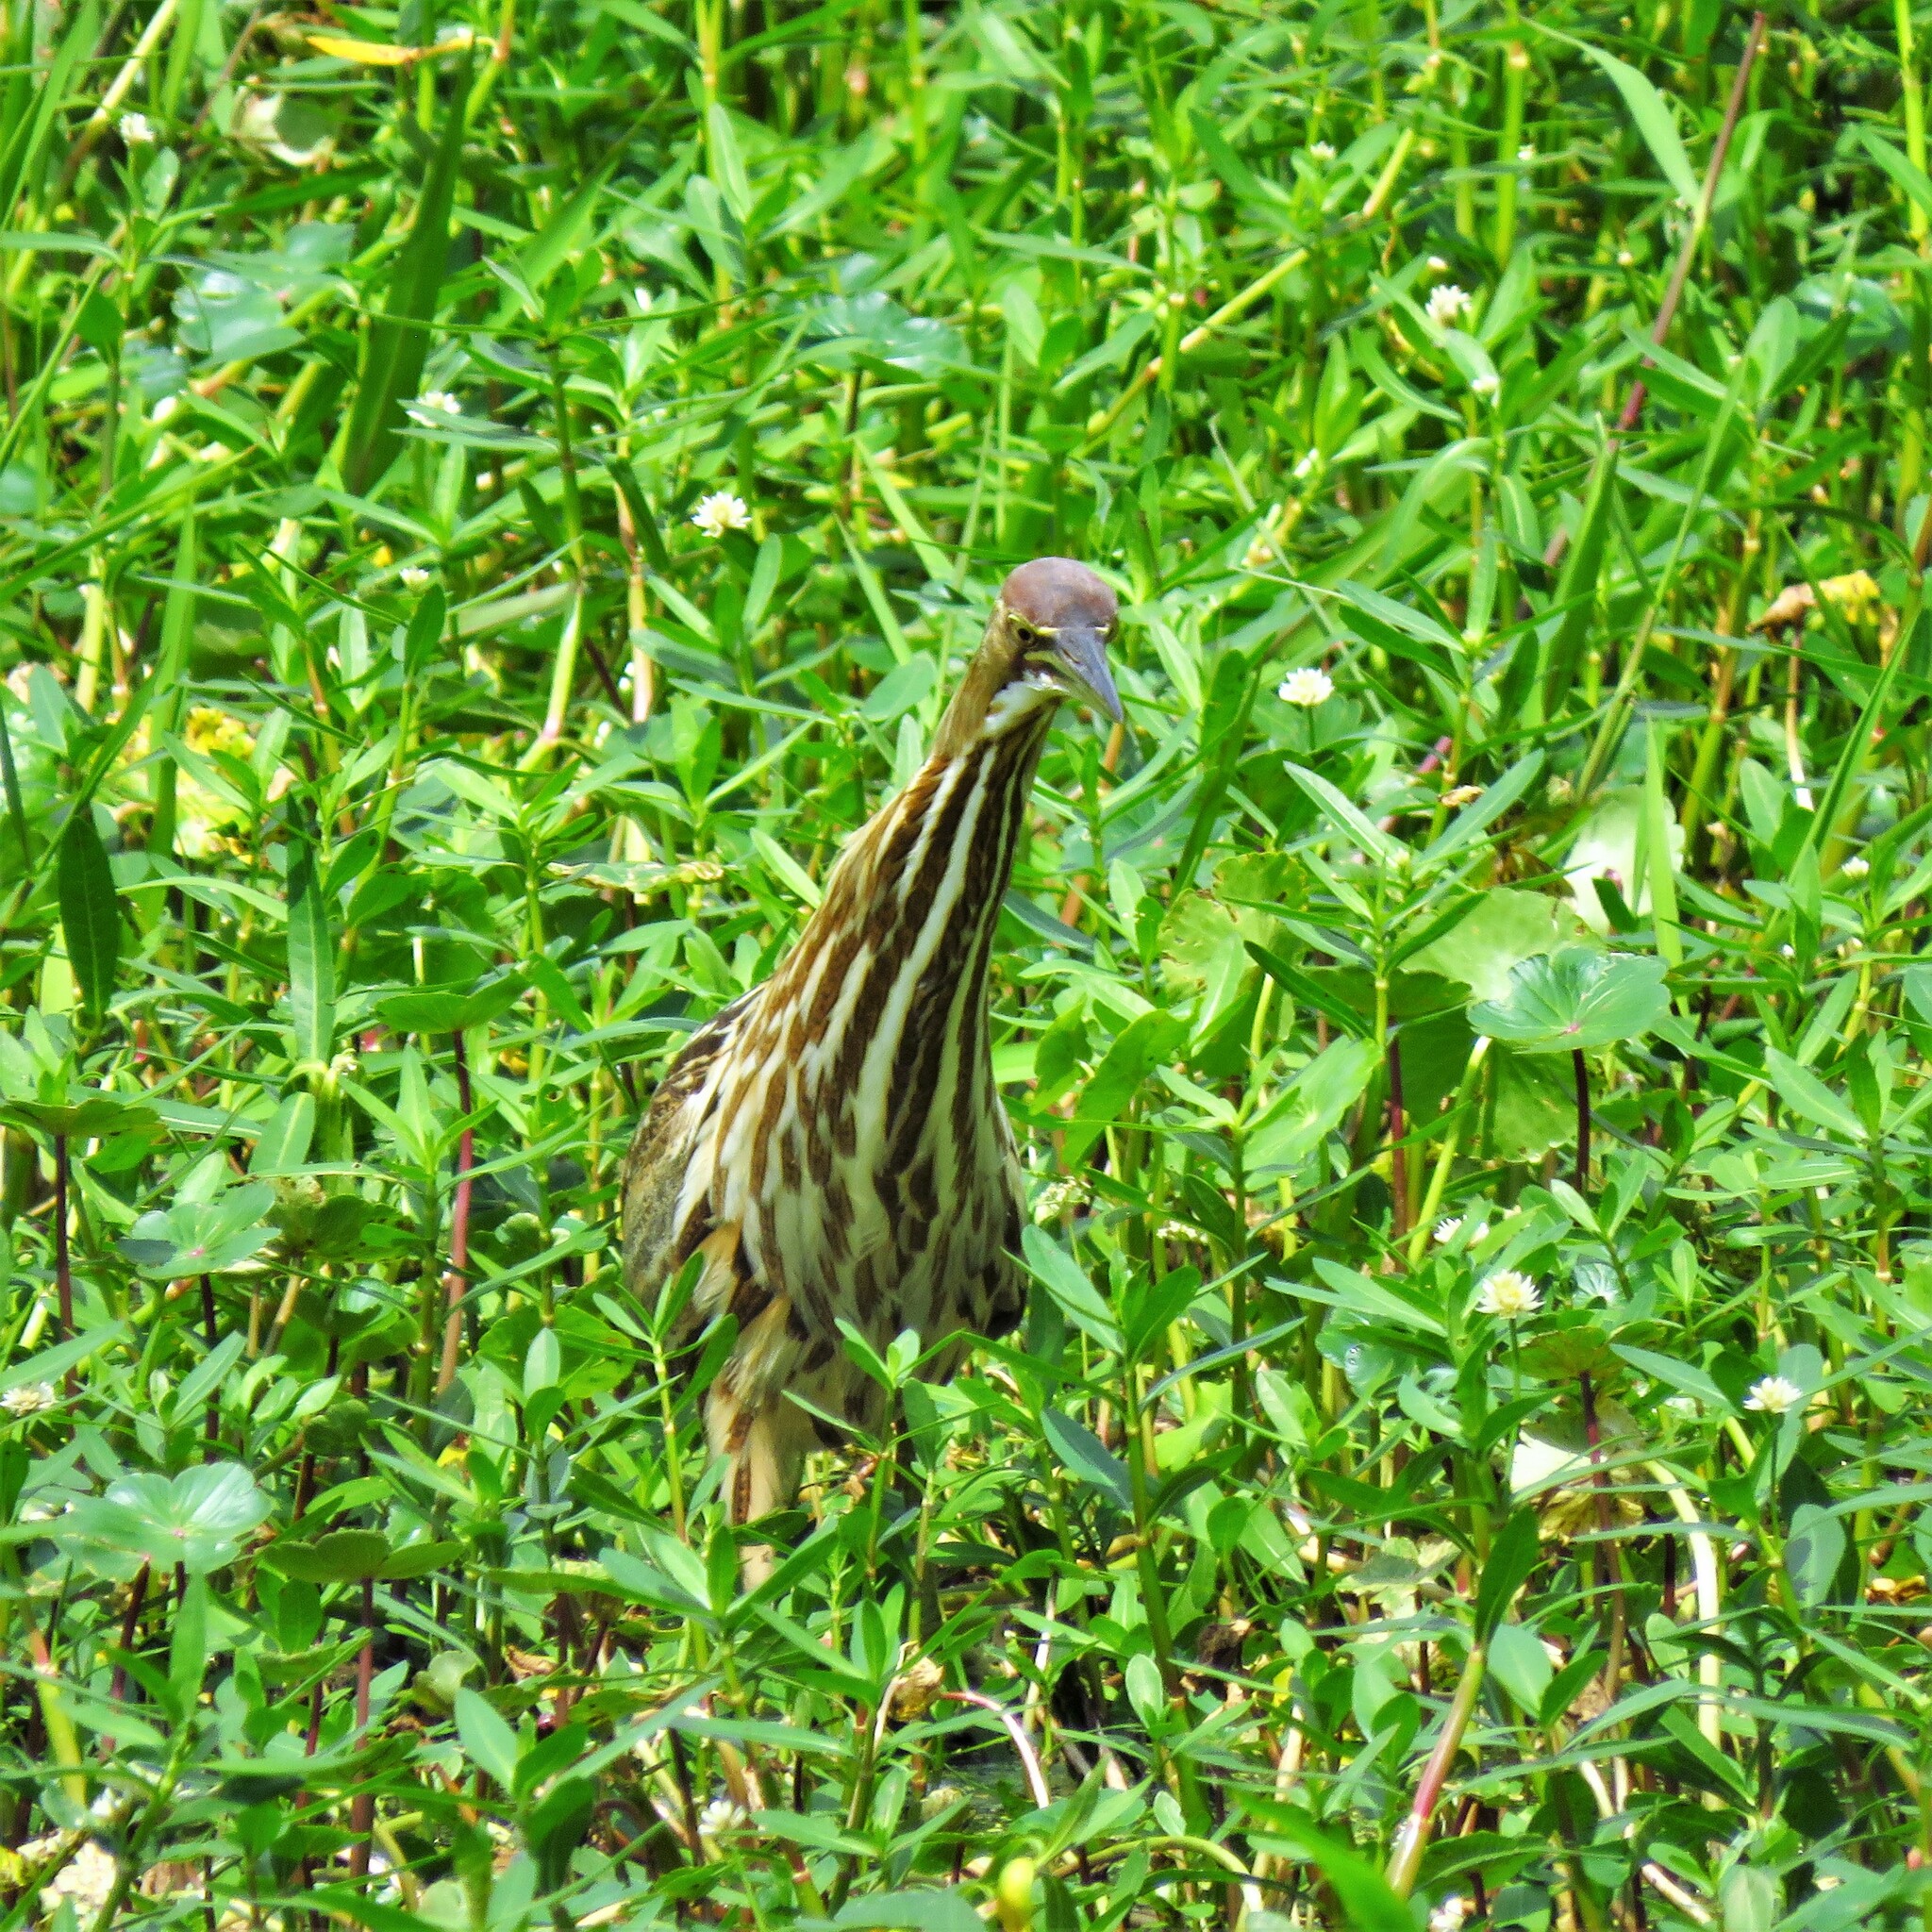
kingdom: Animalia
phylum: Chordata
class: Aves
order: Pelecaniformes
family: Ardeidae
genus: Botaurus
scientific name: Botaurus lentiginosus
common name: American bittern
